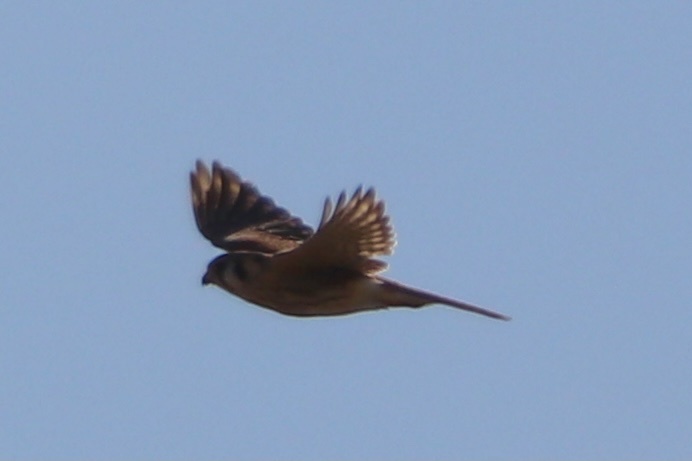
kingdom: Animalia
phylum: Chordata
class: Aves
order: Falconiformes
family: Falconidae
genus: Falco
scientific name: Falco sparverius
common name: American kestrel
